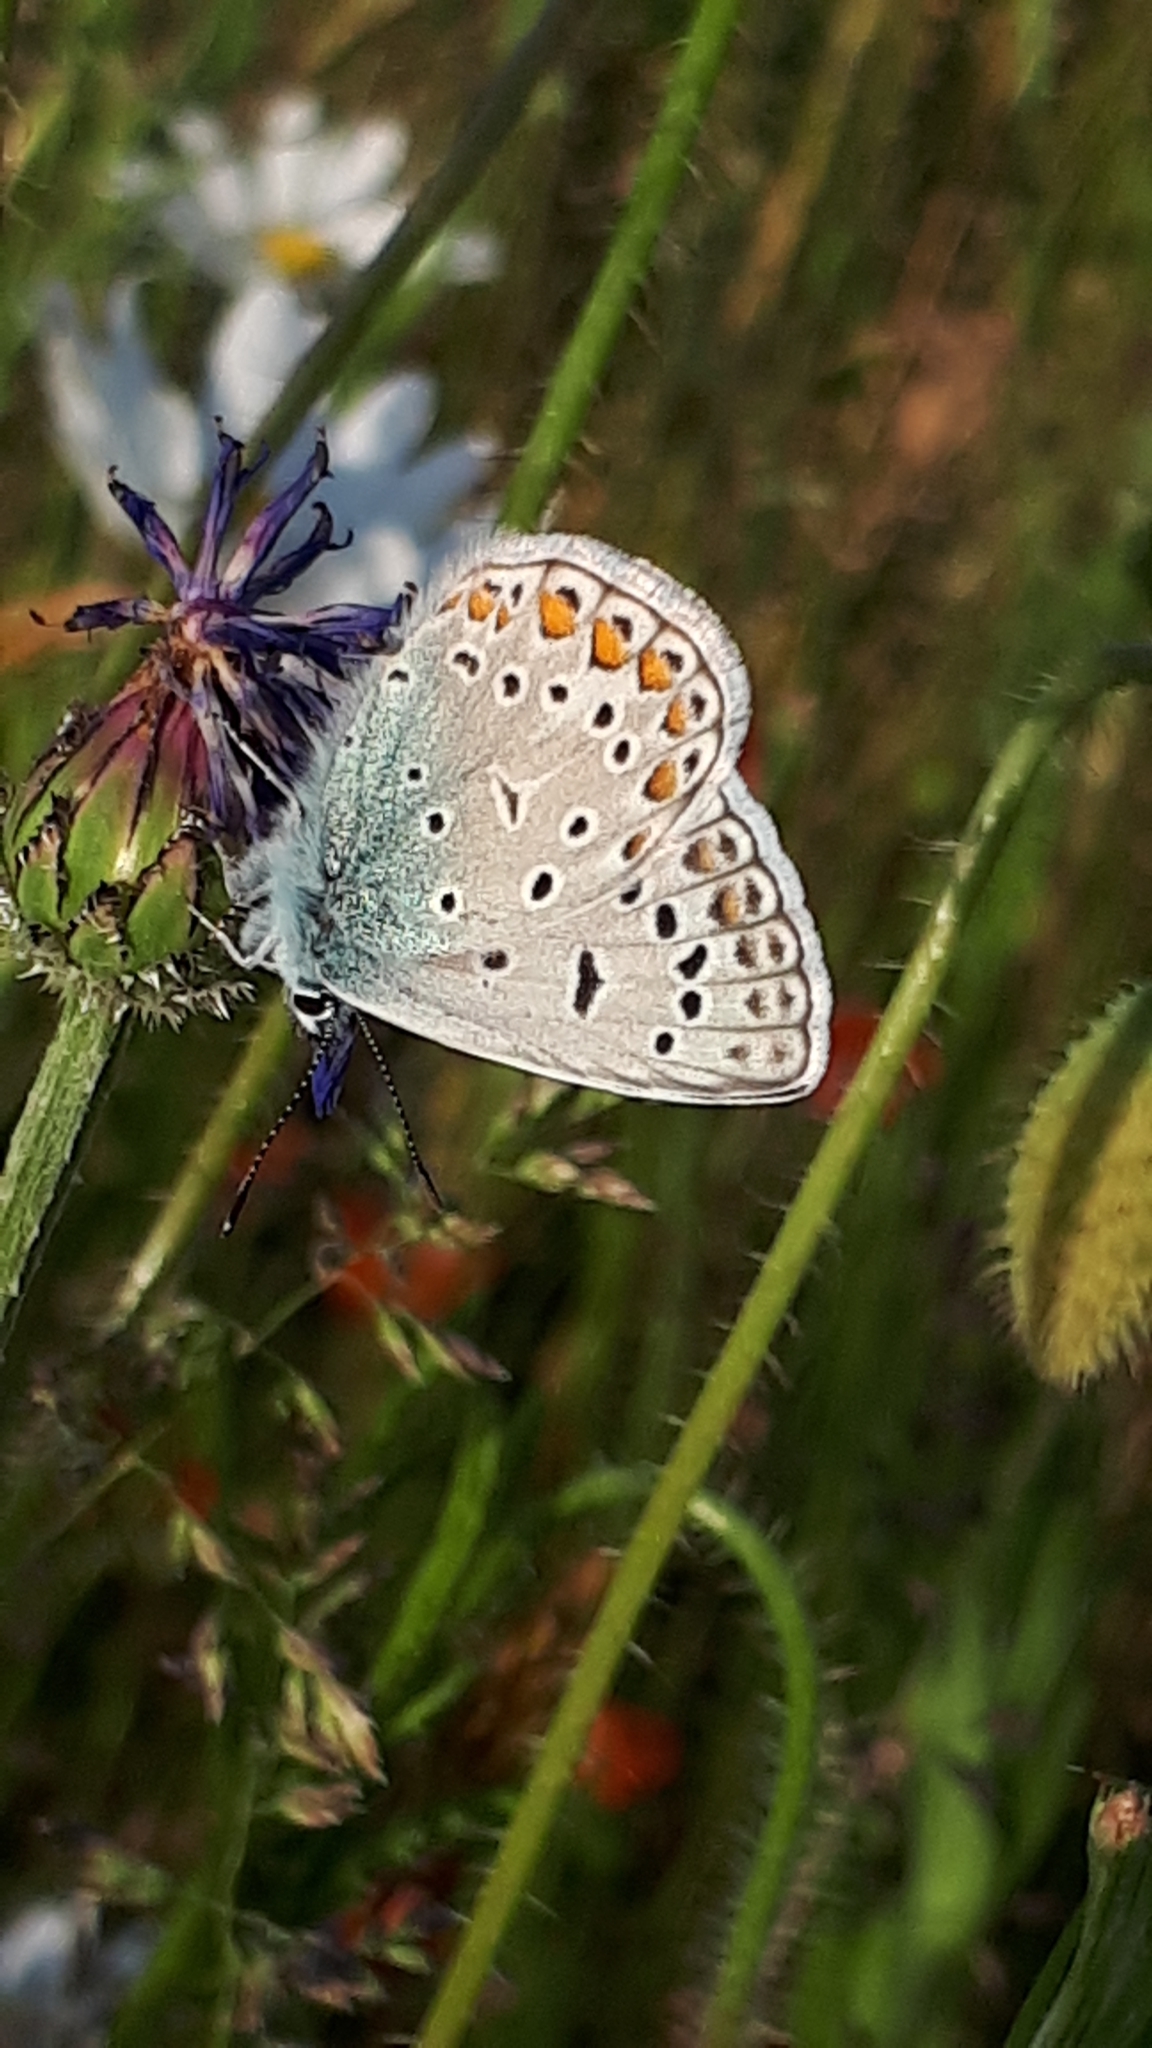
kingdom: Animalia
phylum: Arthropoda
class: Insecta
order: Lepidoptera
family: Lycaenidae
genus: Polyommatus
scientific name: Polyommatus icarus
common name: Common blue
